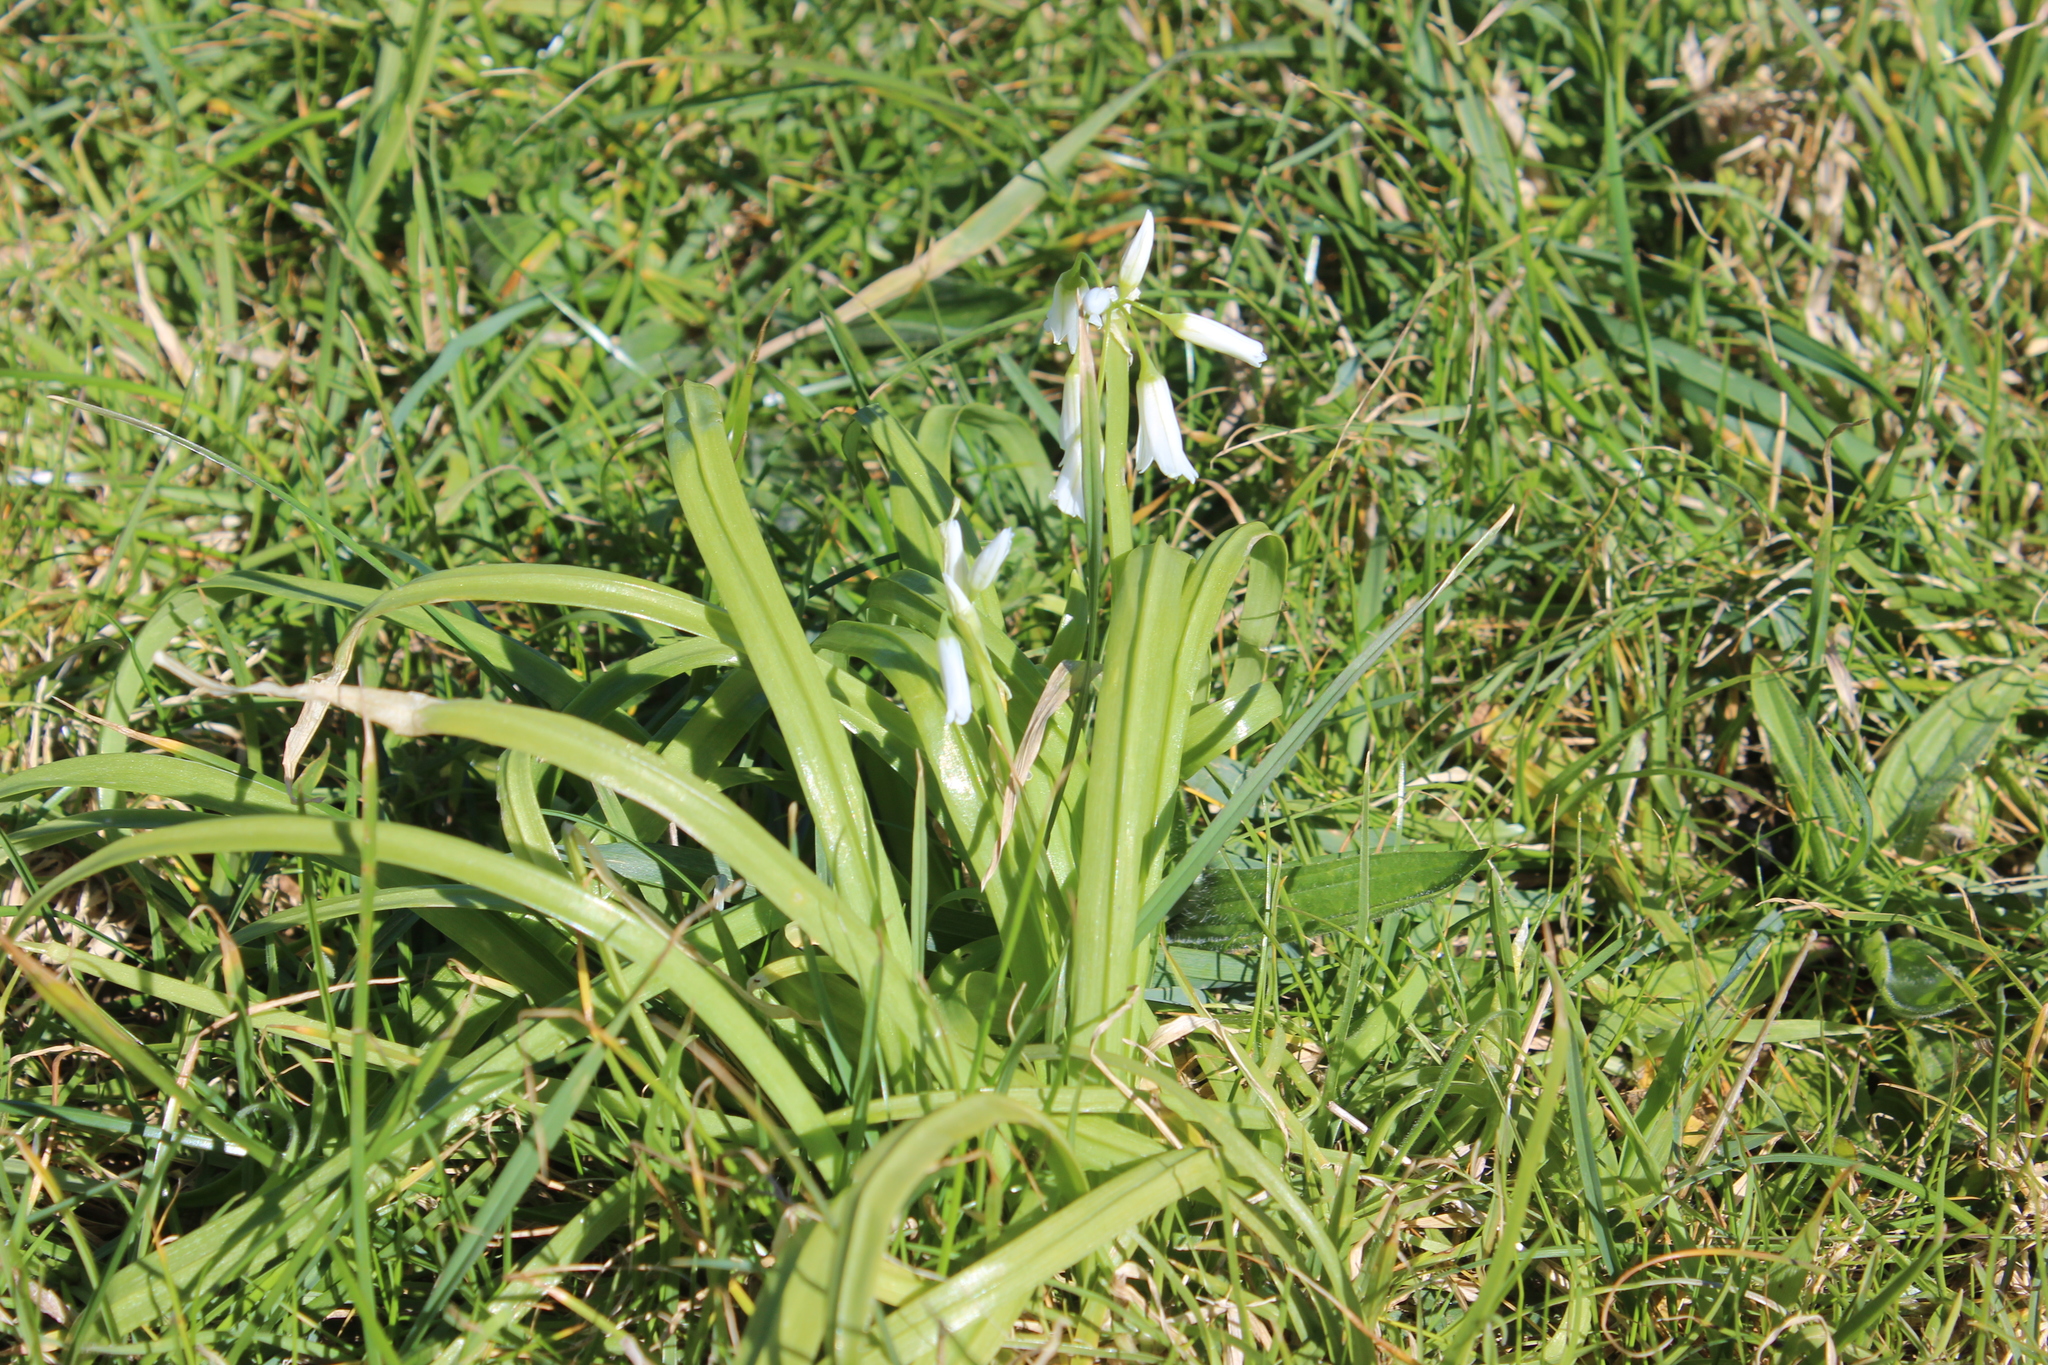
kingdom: Plantae
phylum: Tracheophyta
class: Liliopsida
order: Asparagales
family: Amaryllidaceae
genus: Allium
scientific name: Allium triquetrum
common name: Three-cornered garlic
